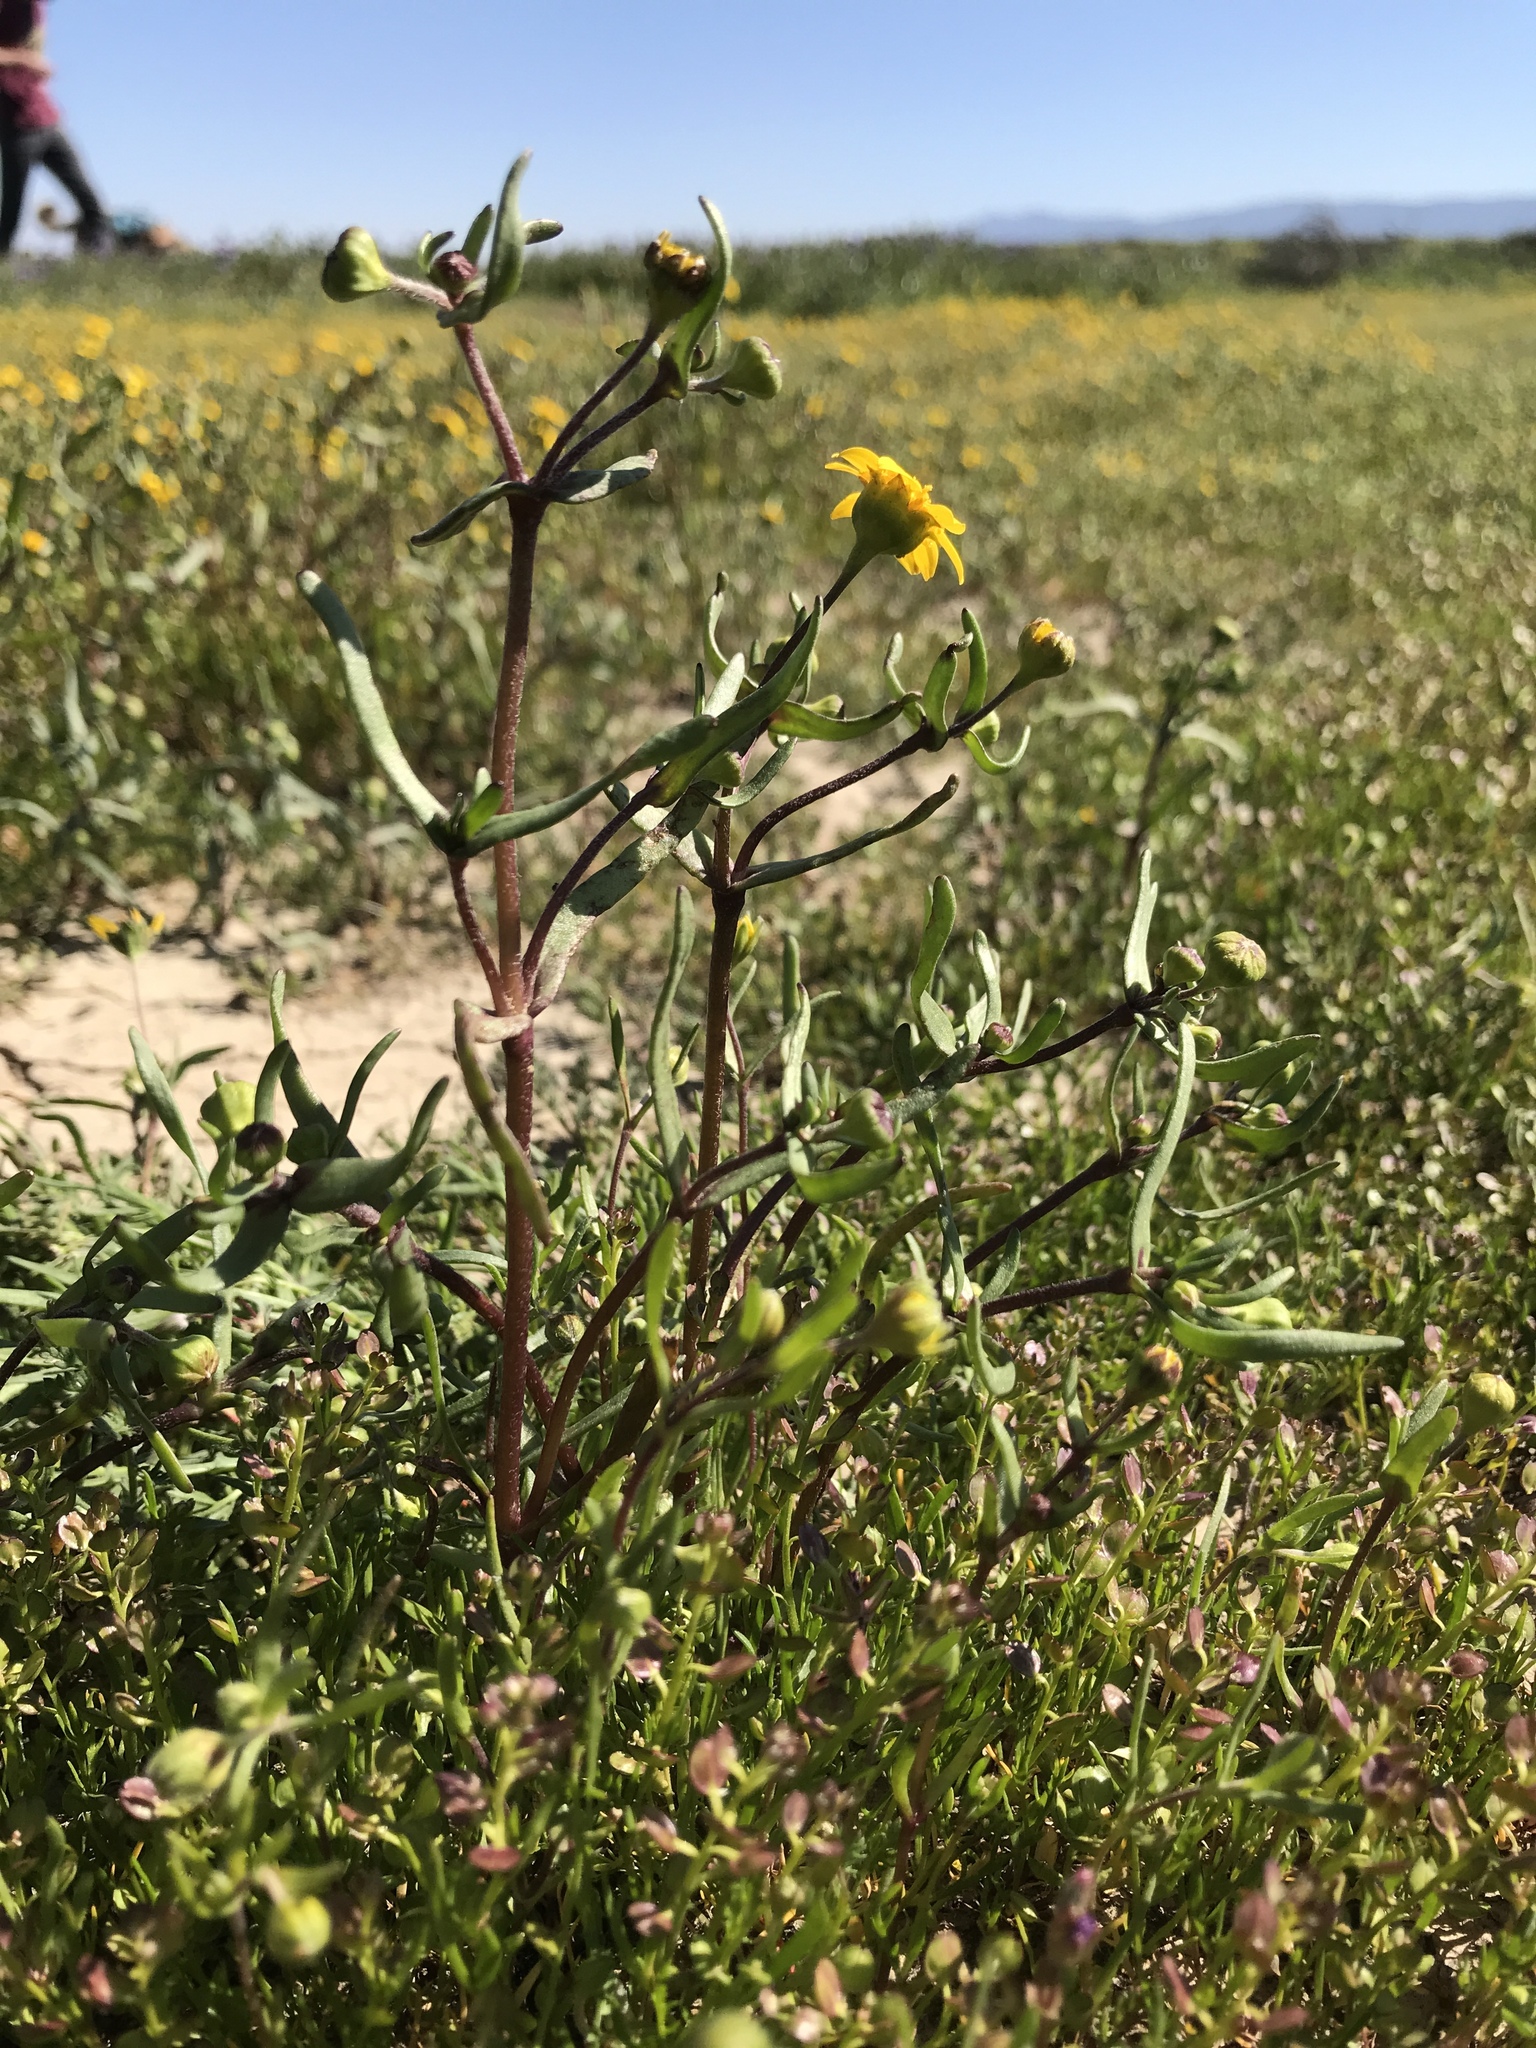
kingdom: Plantae
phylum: Tracheophyta
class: Magnoliopsida
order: Asterales
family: Asteraceae
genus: Lasthenia
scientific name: Lasthenia ferrisiae
